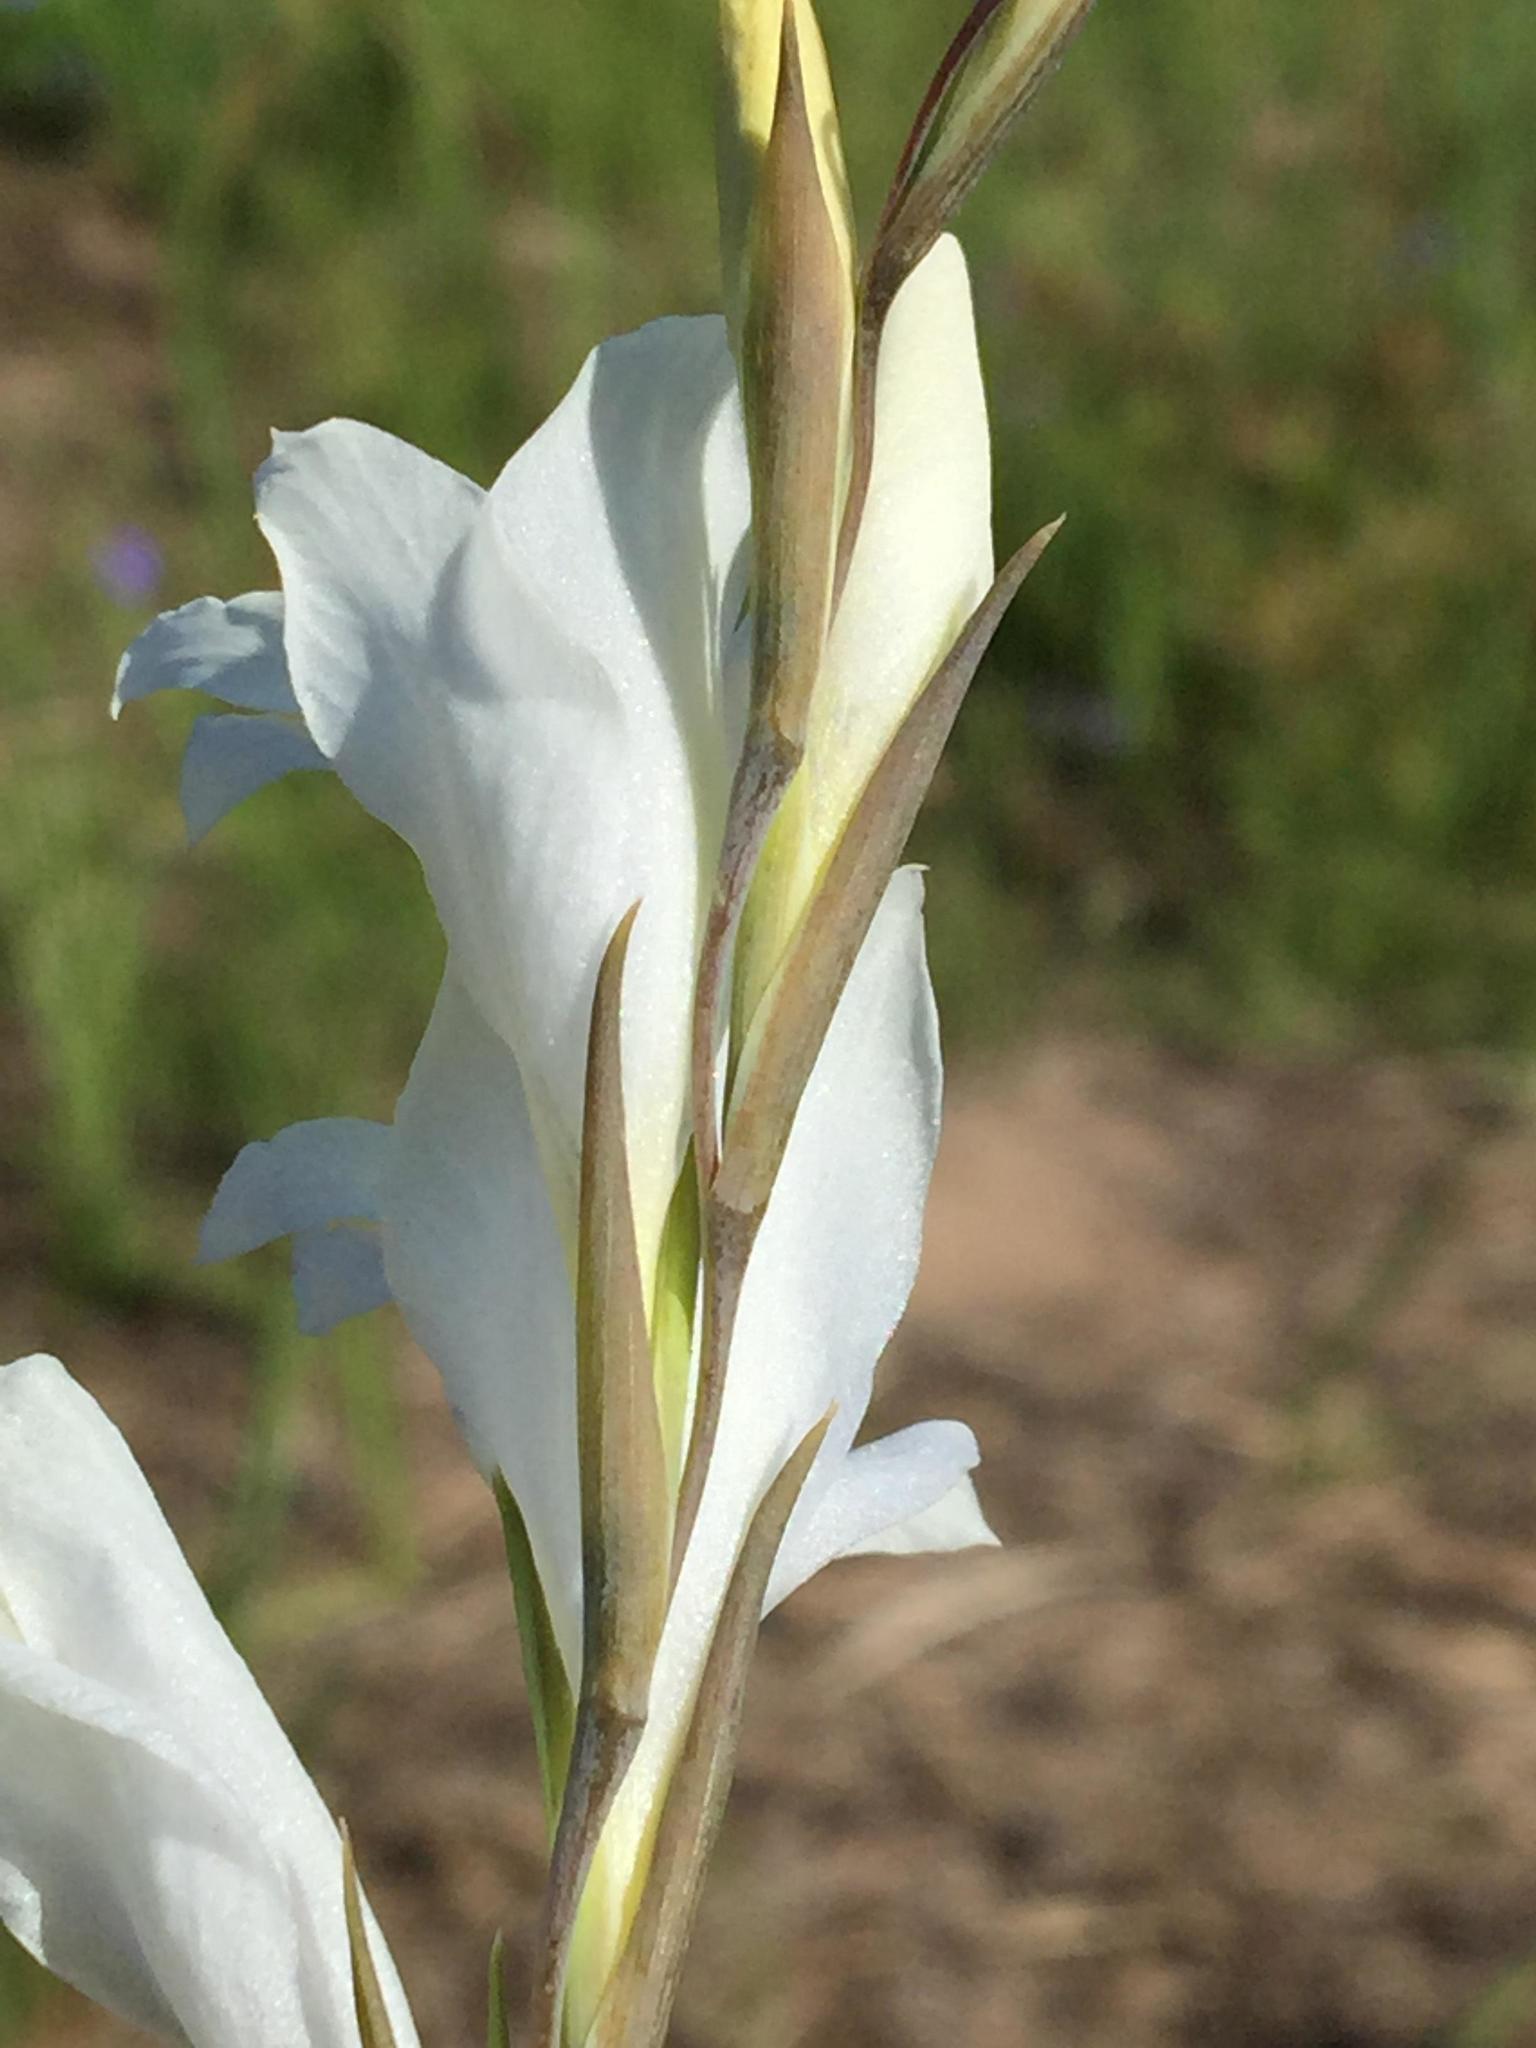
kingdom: Plantae
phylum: Tracheophyta
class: Liliopsida
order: Asparagales
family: Iridaceae
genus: Gladiolus
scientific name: Gladiolus vaginatus
